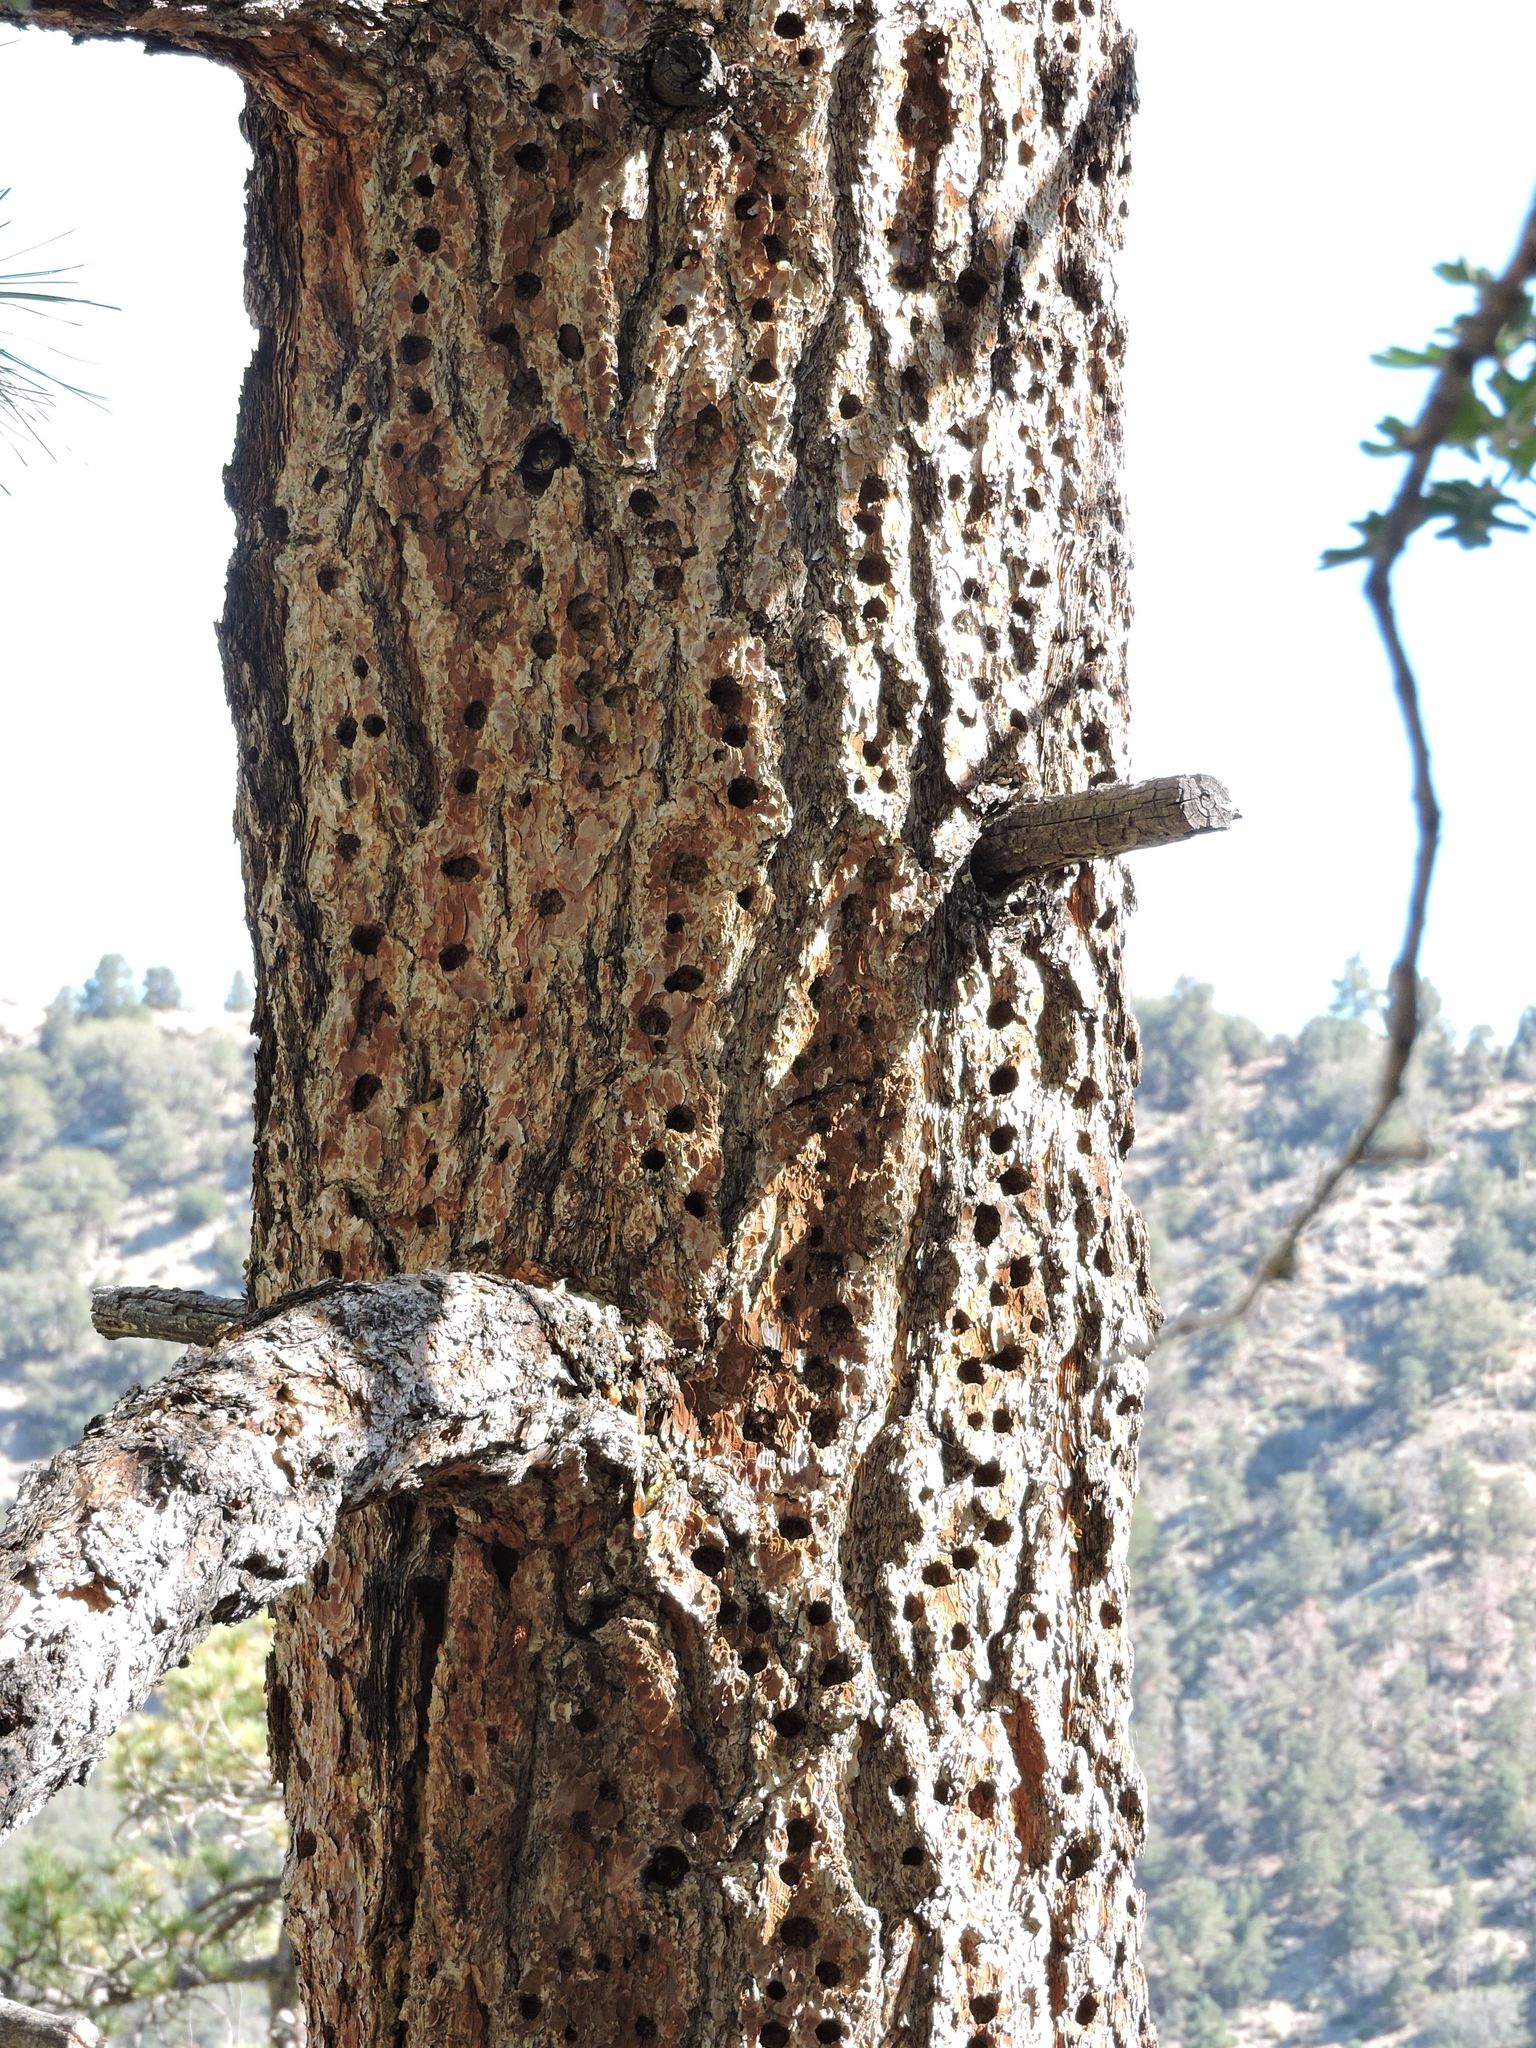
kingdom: Animalia
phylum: Chordata
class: Aves
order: Piciformes
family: Picidae
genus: Melanerpes
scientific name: Melanerpes formicivorus
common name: Acorn woodpecker
